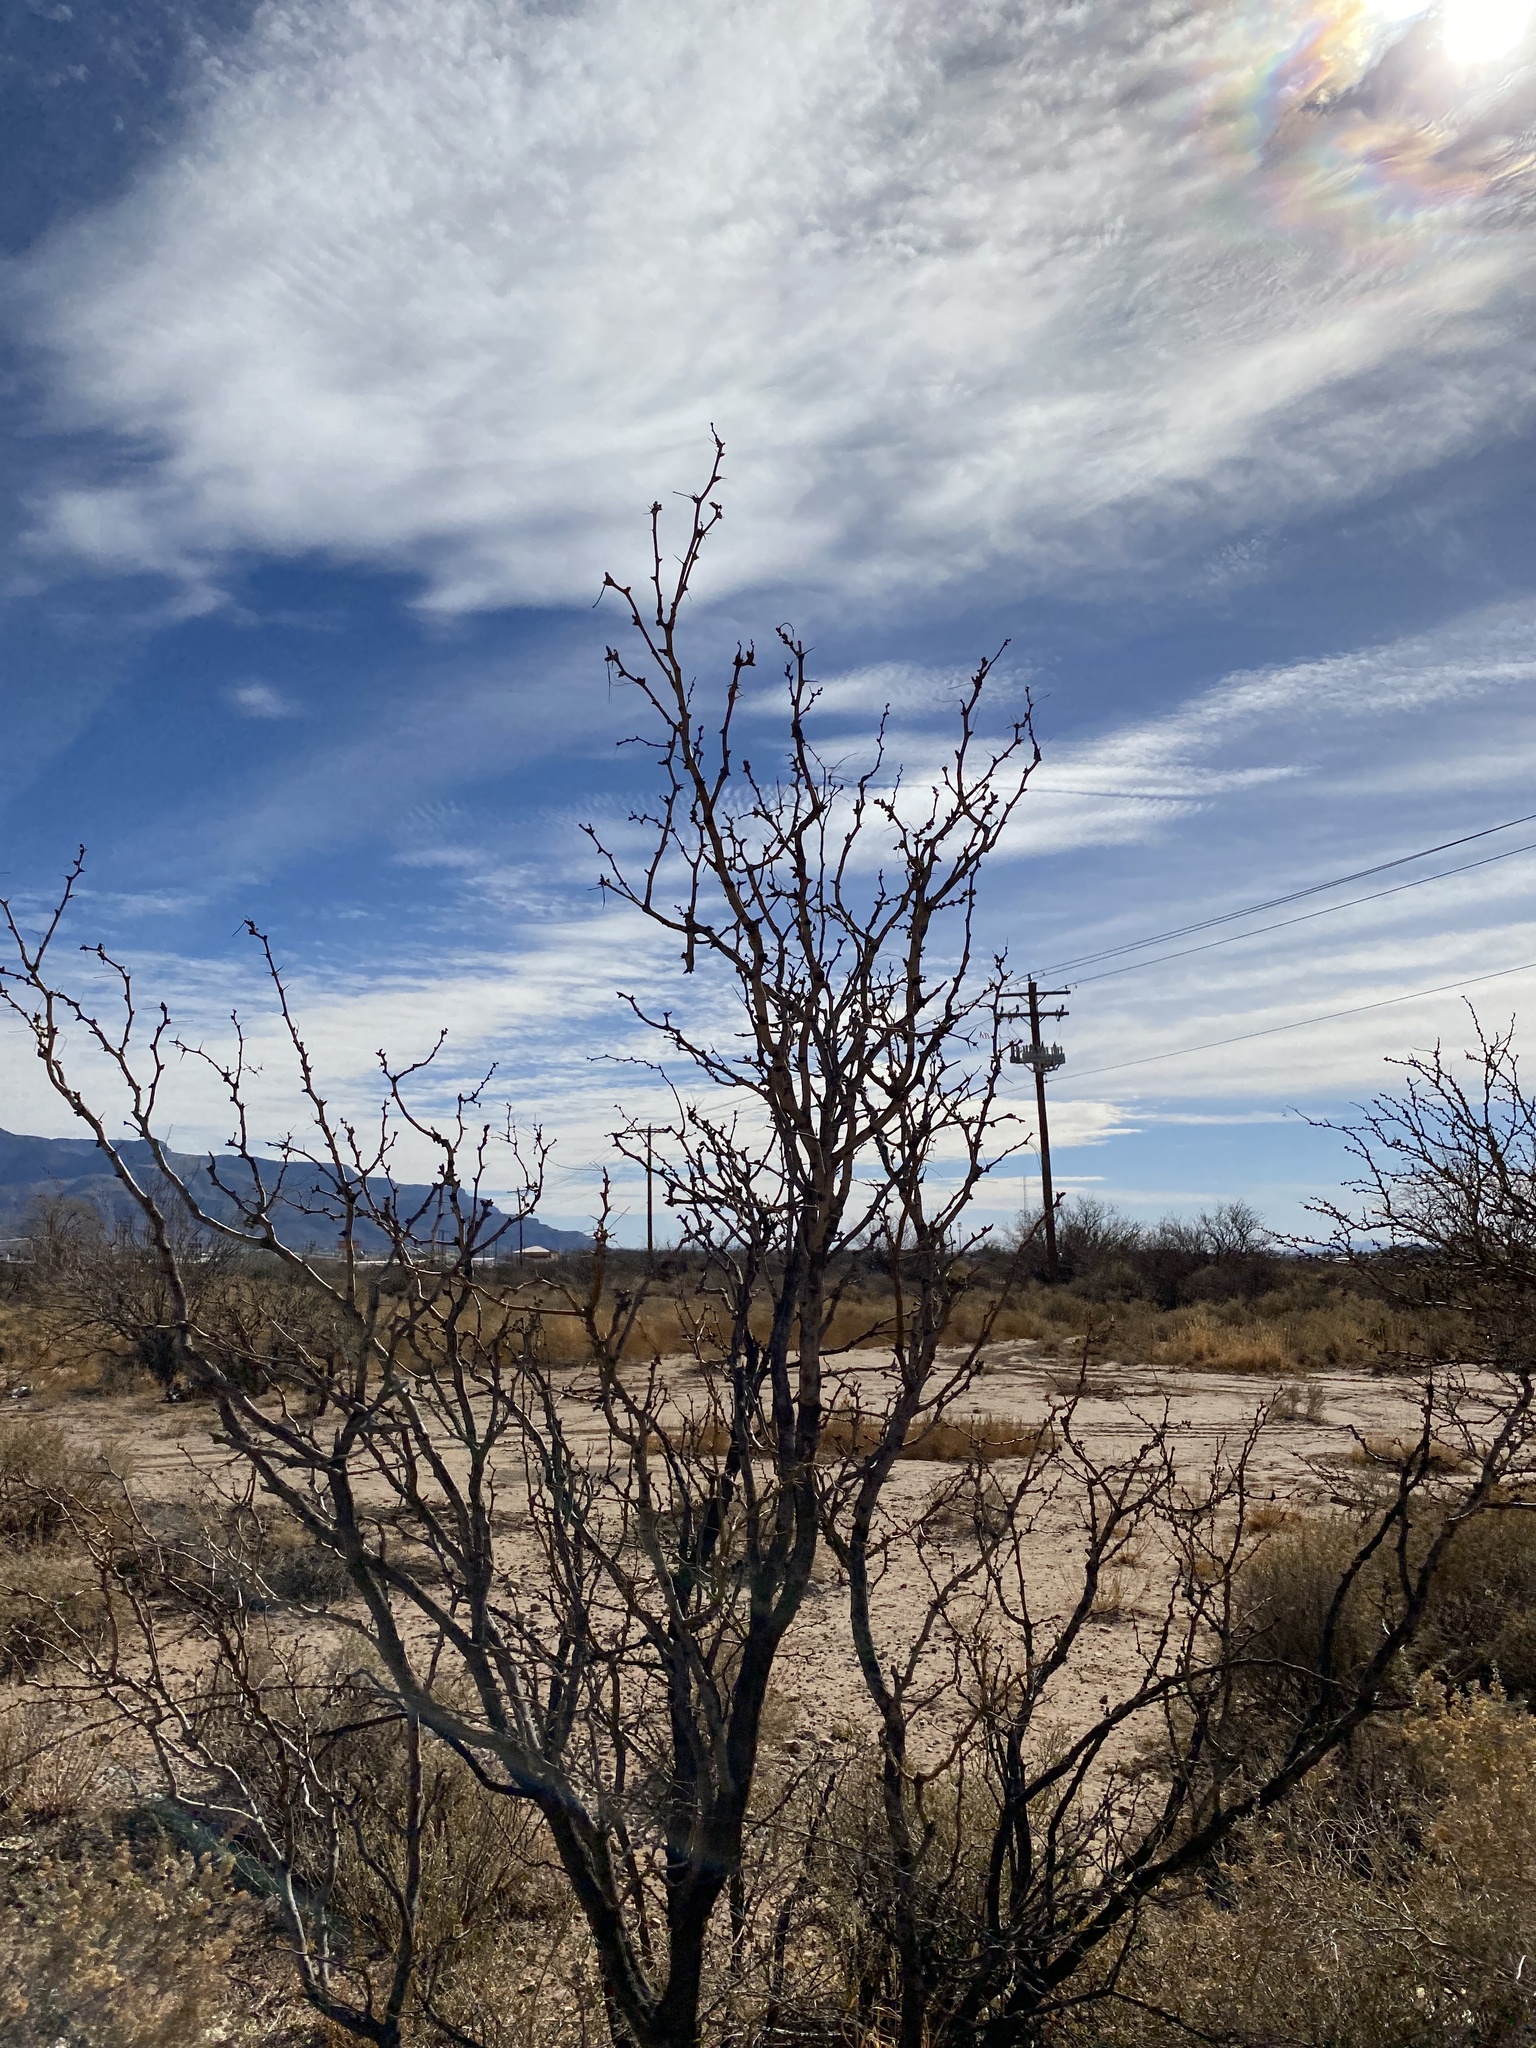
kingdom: Plantae
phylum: Tracheophyta
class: Magnoliopsida
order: Fabales
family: Fabaceae
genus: Prosopis
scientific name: Prosopis glandulosa
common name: Honey mesquite
